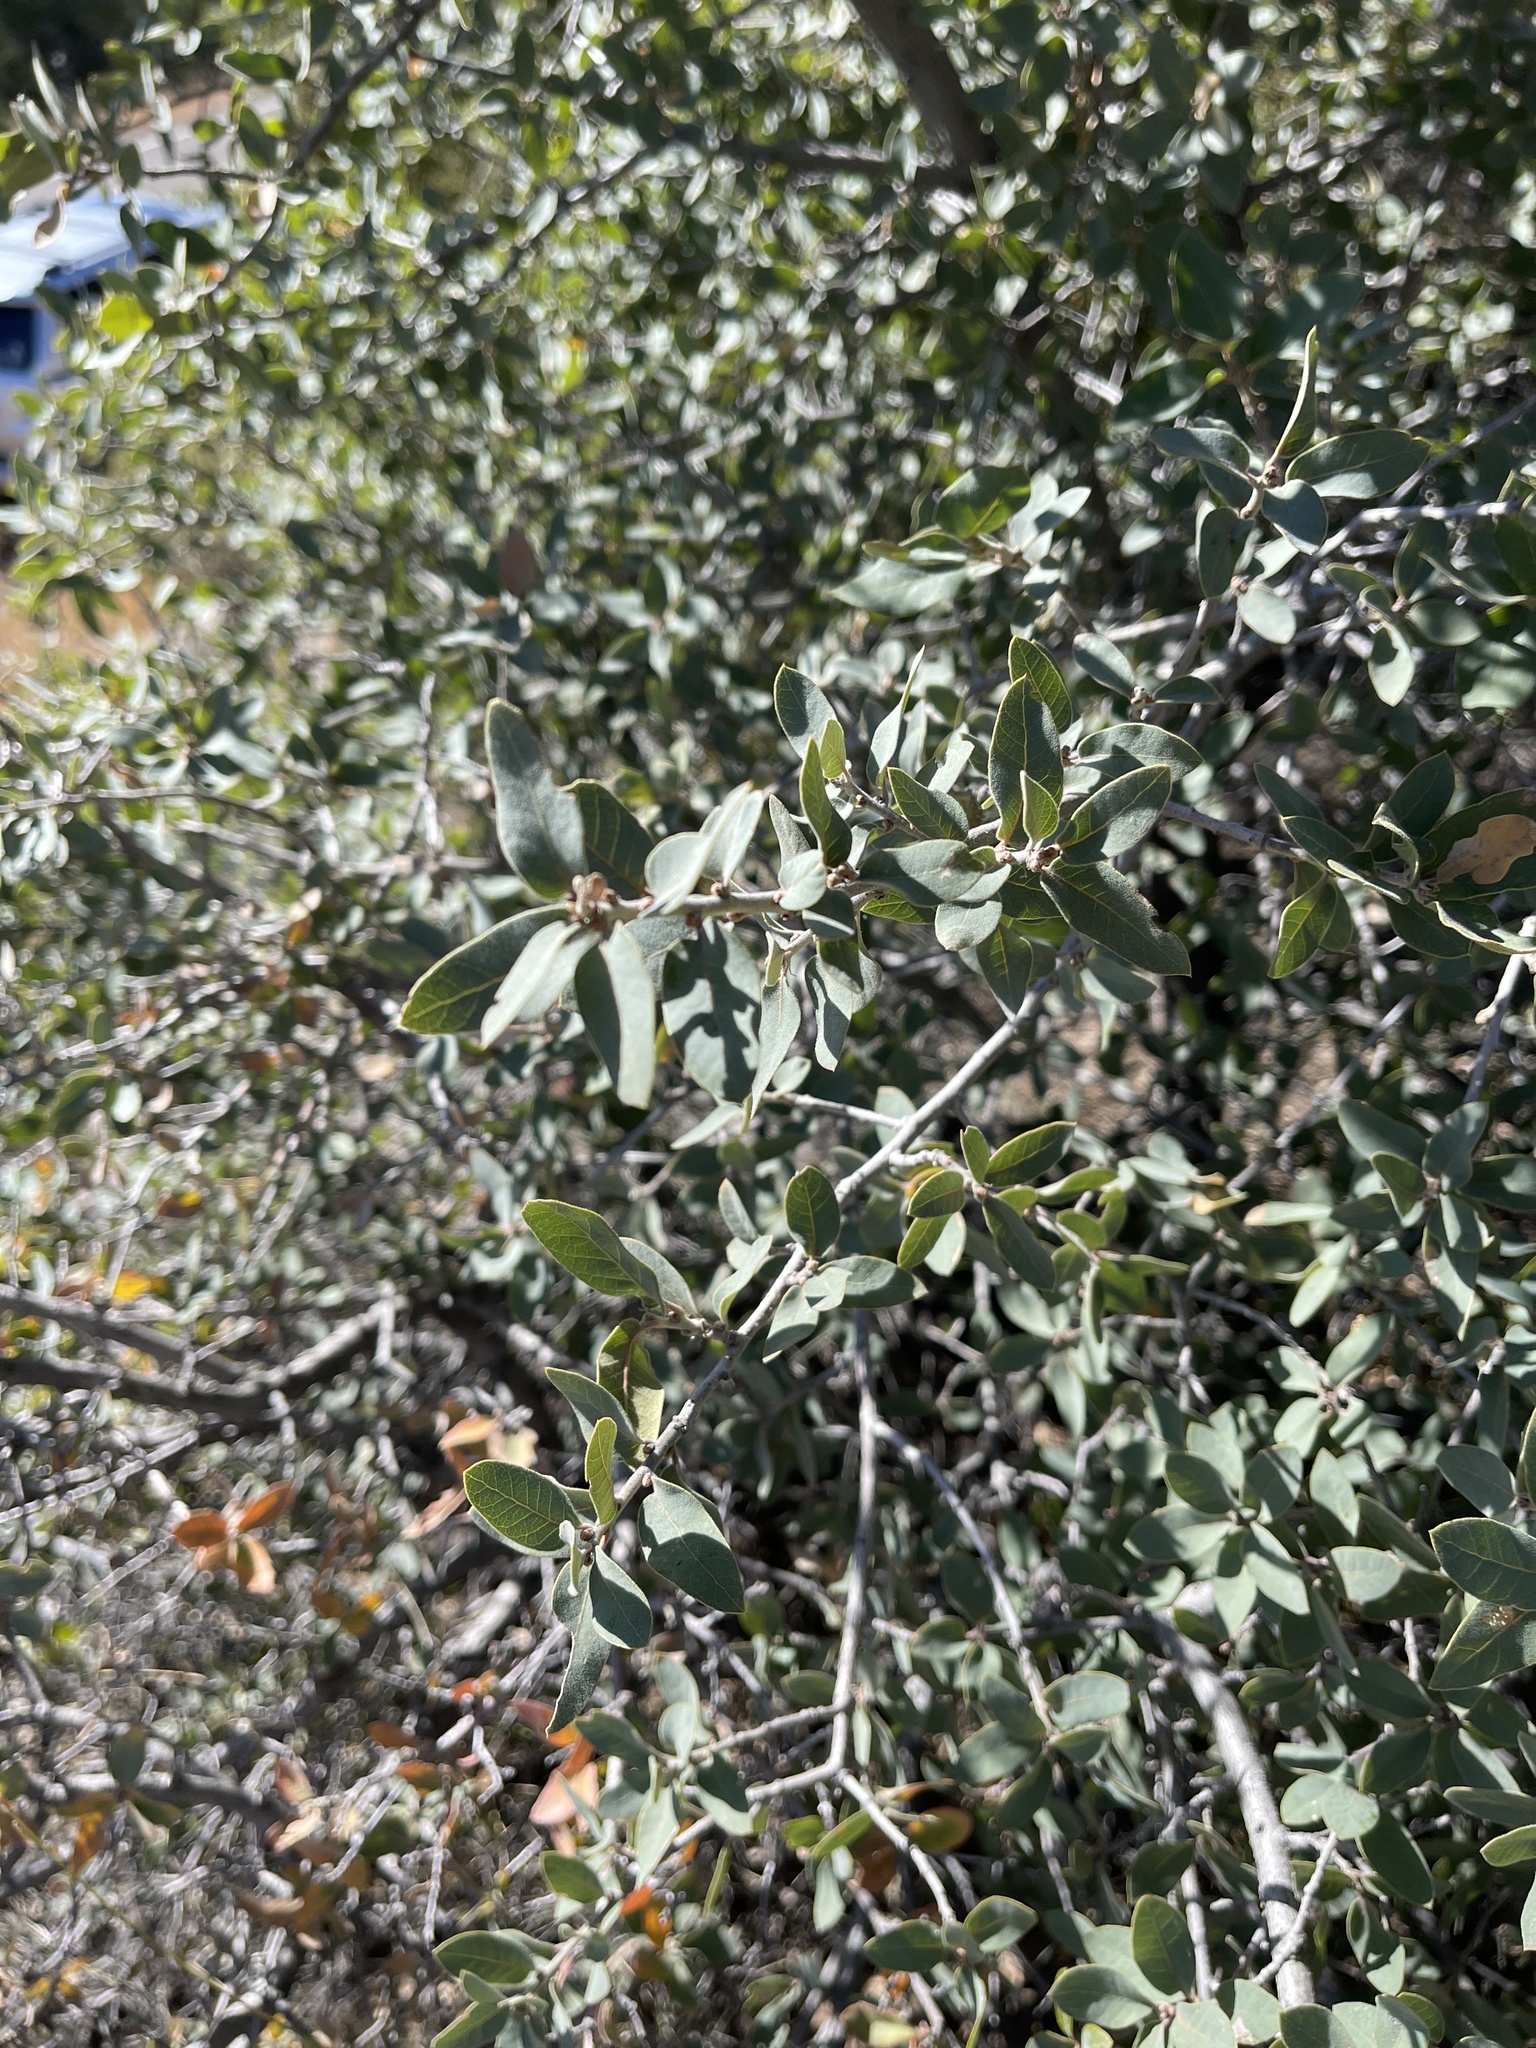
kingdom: Plantae
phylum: Tracheophyta
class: Magnoliopsida
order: Fagales
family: Fagaceae
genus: Quercus
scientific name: Quercus grisea
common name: Gray oak
